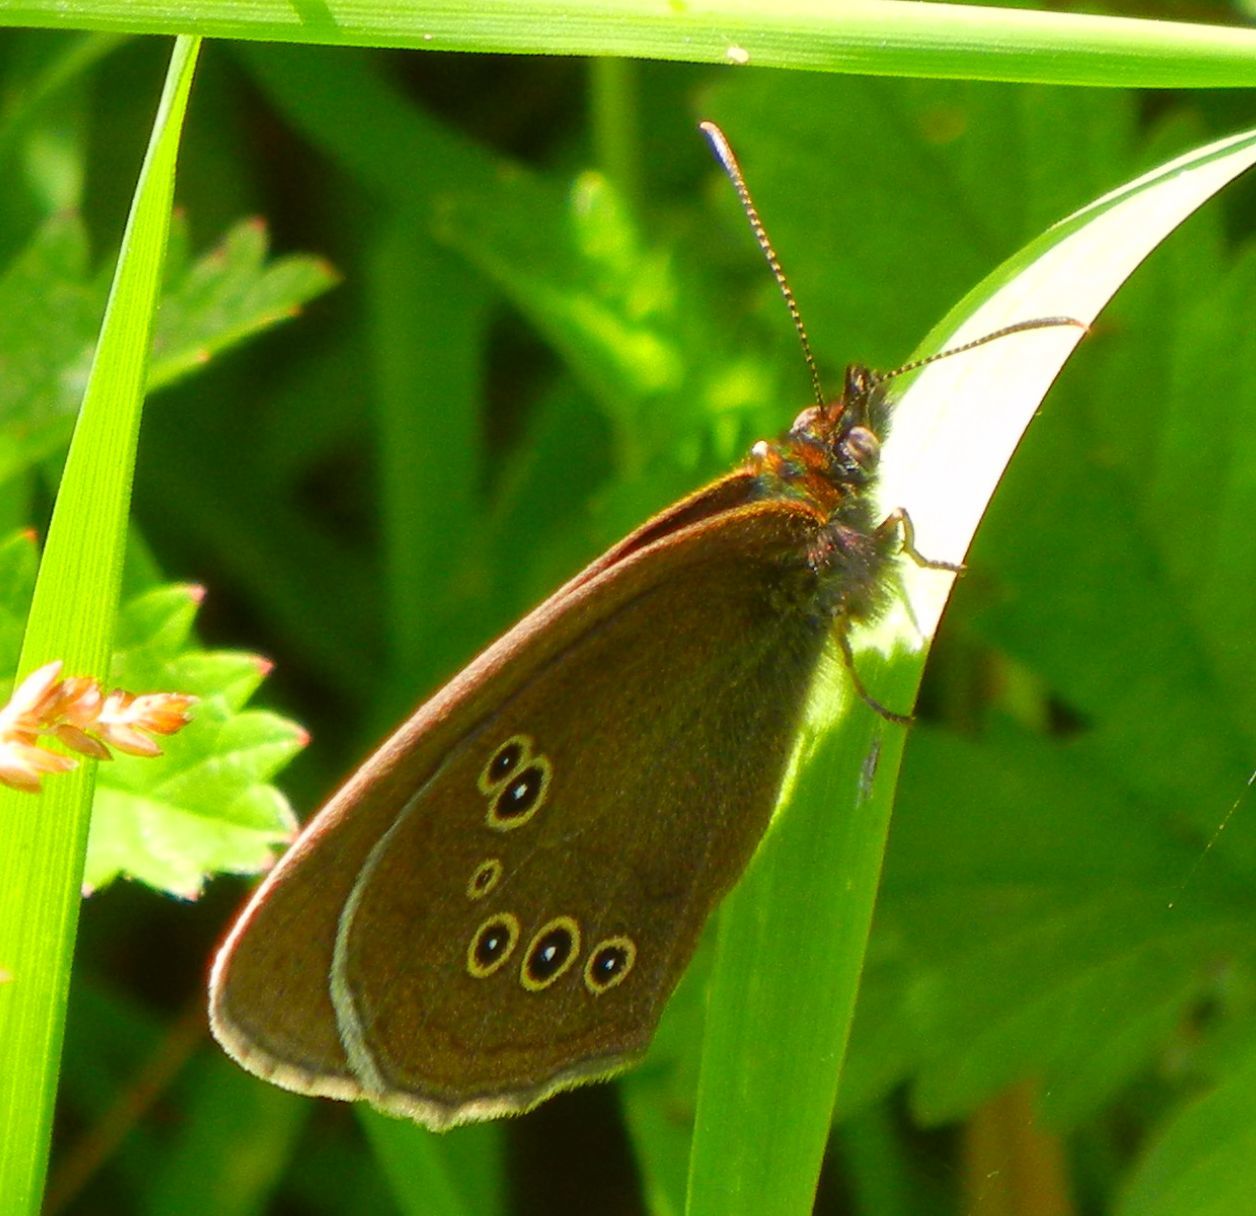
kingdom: Animalia
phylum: Arthropoda
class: Insecta
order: Lepidoptera
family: Nymphalidae
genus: Aphantopus
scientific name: Aphantopus hyperantus
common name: Ringlet
